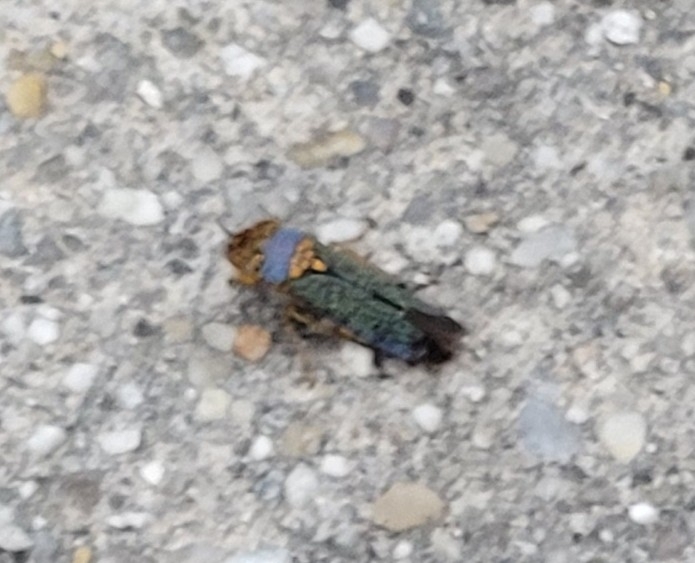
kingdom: Animalia
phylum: Arthropoda
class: Insecta
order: Hemiptera
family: Cicadellidae
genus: Oncometopia
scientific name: Oncometopia orbona
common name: Broad-headed sharpshooter
